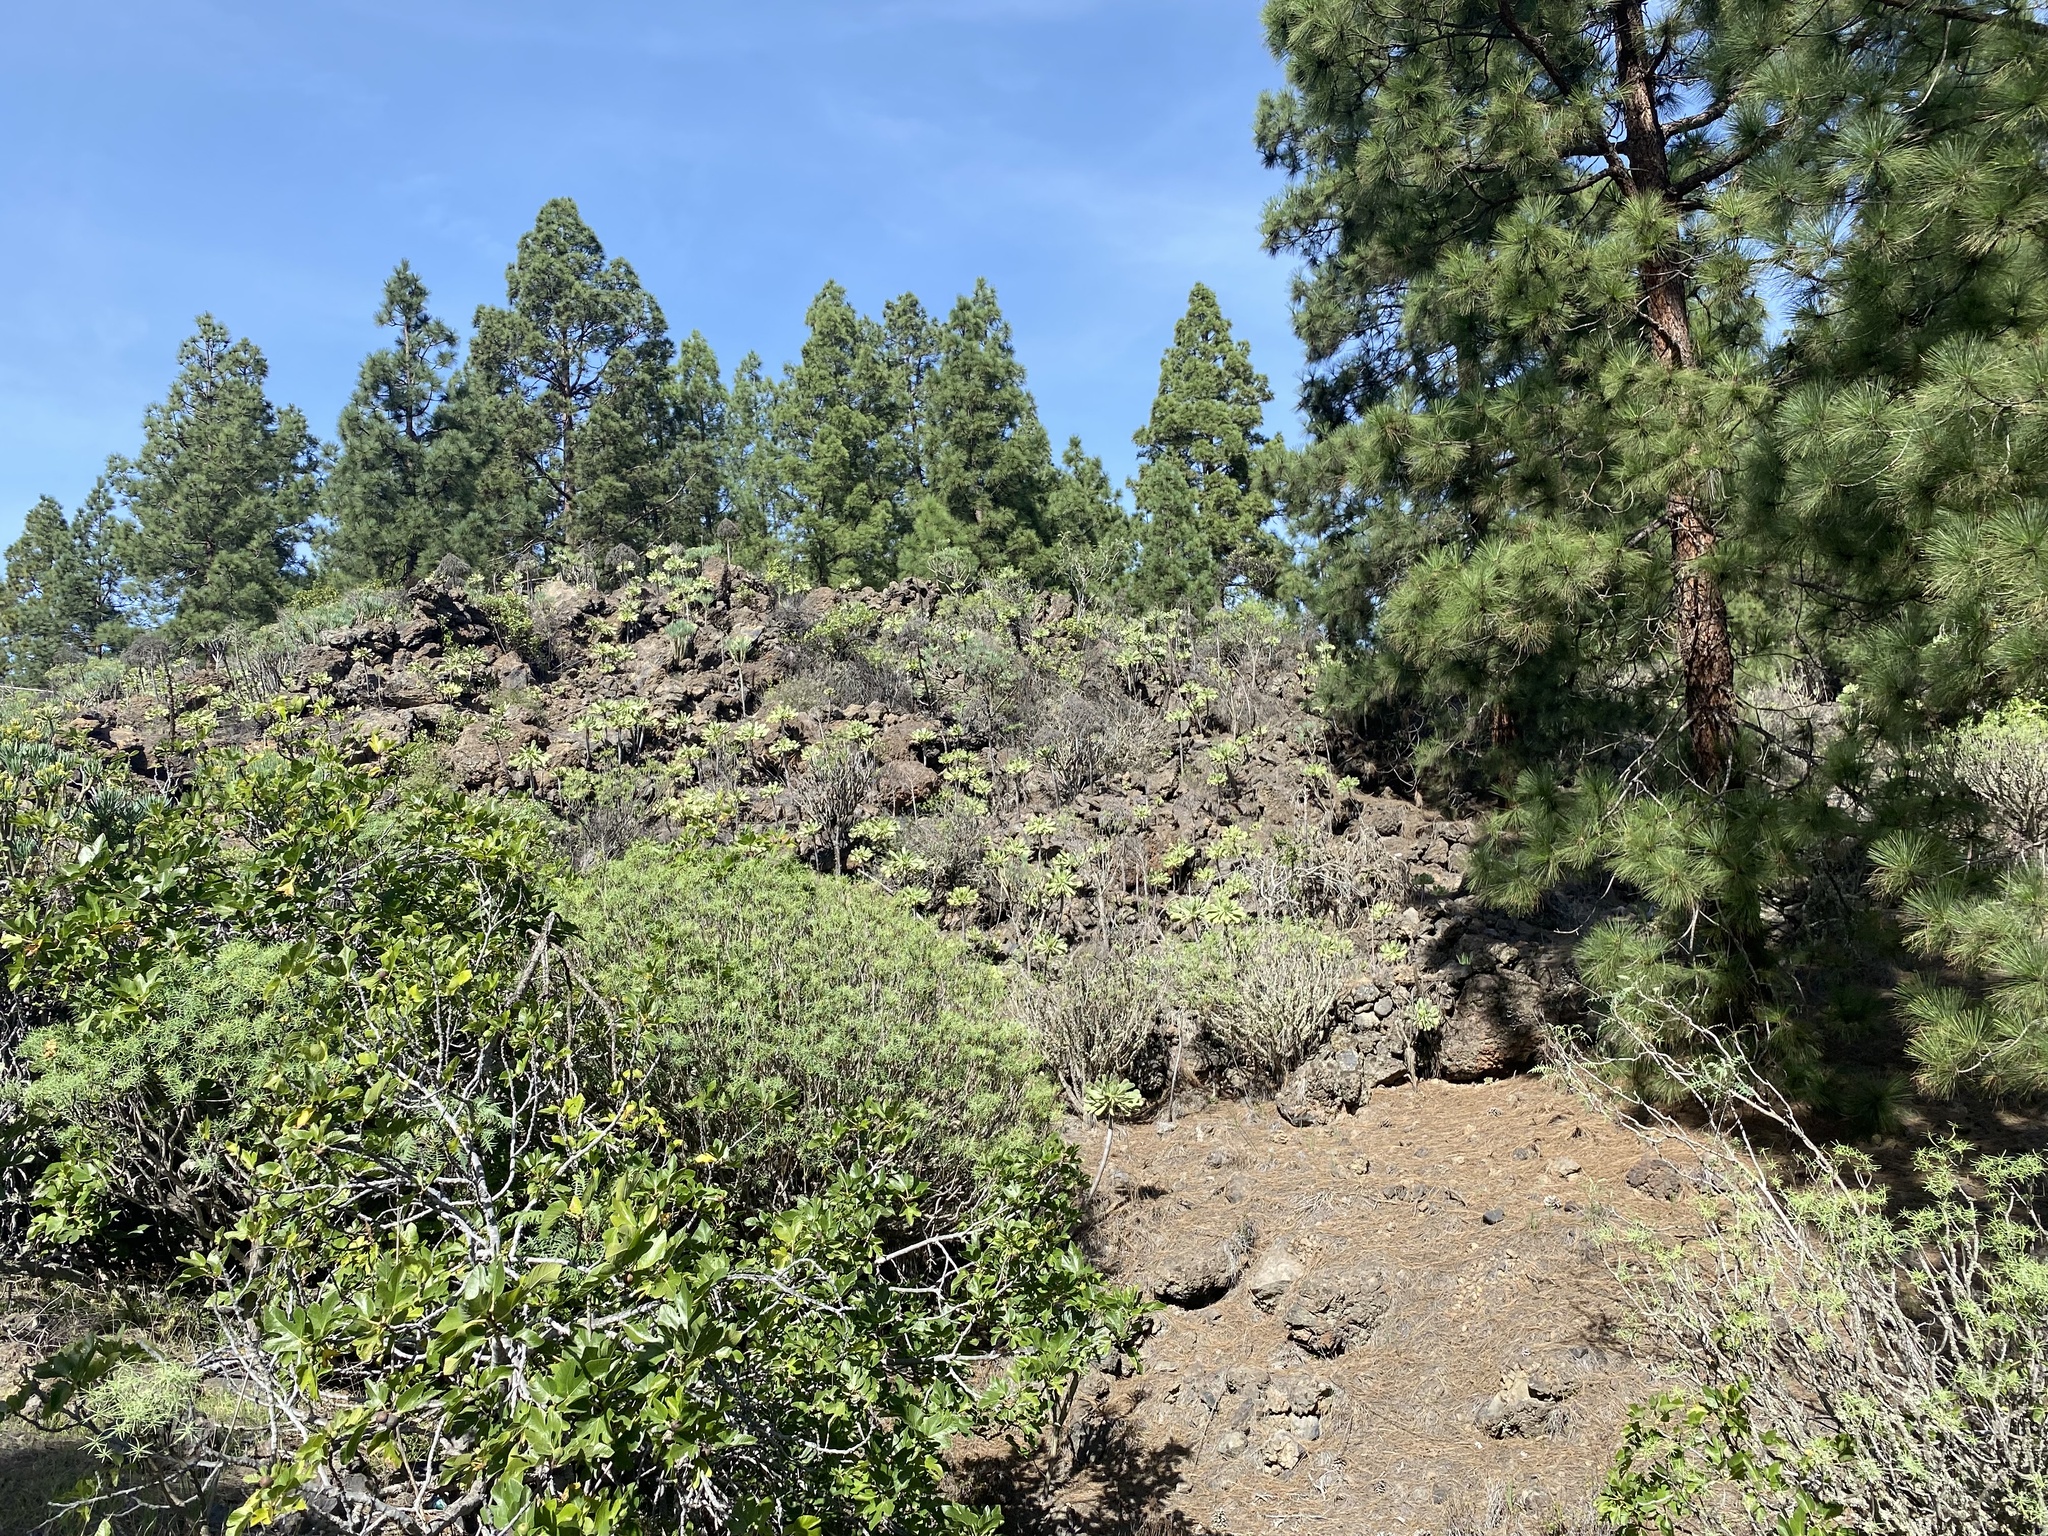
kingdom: Plantae
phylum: Tracheophyta
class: Magnoliopsida
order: Rosales
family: Moraceae
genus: Ficus
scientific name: Ficus carica
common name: Fig
